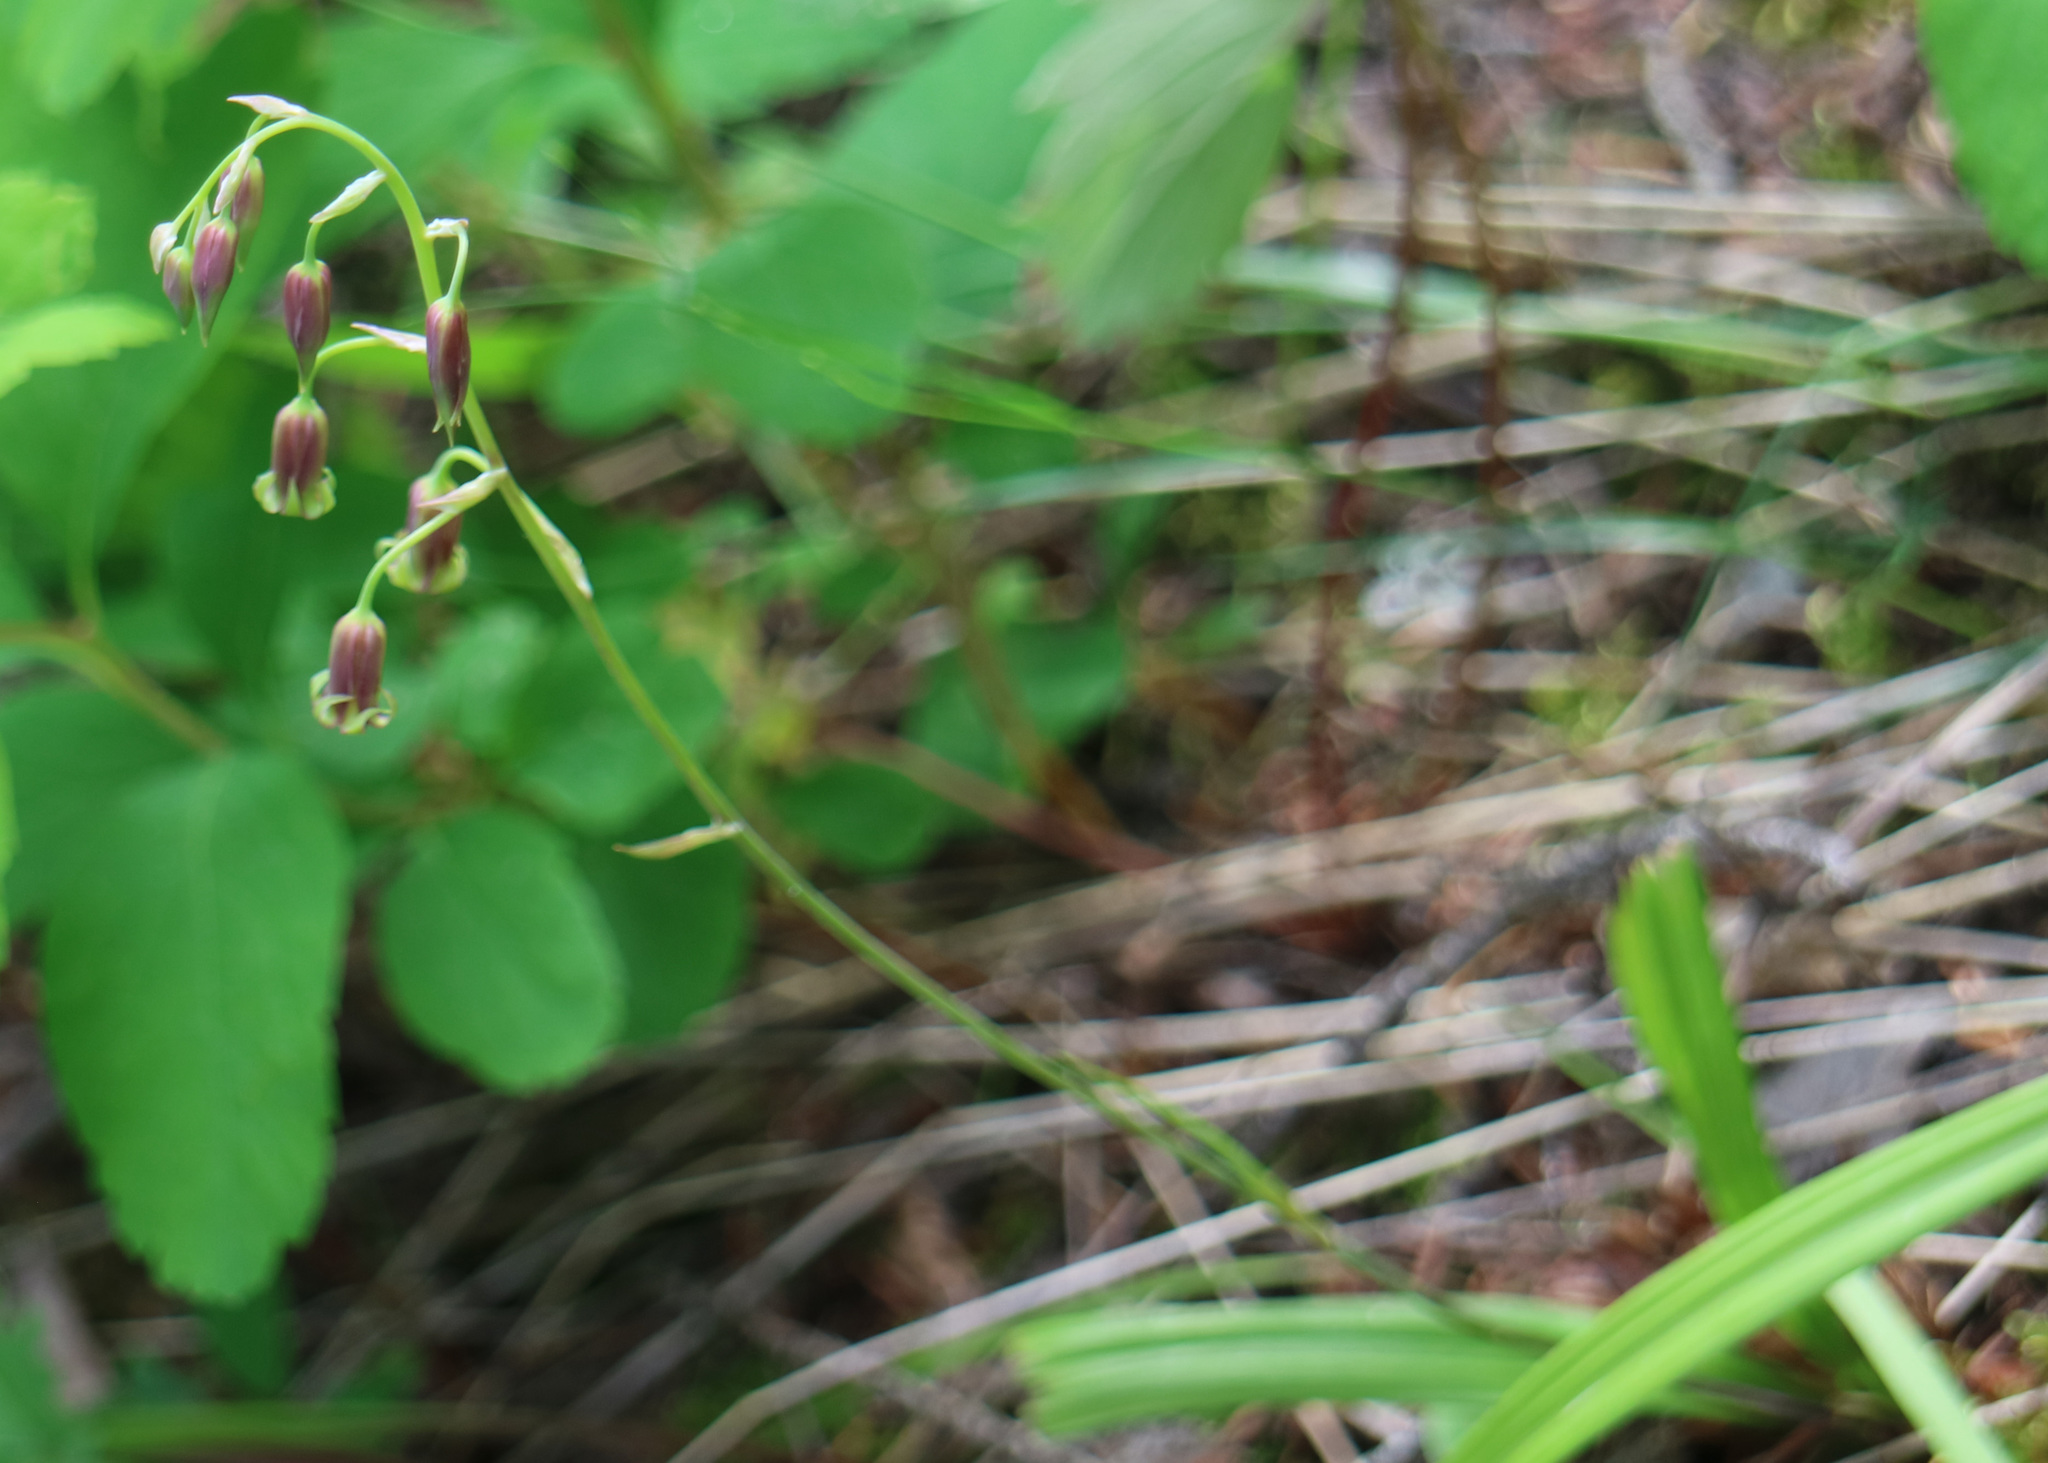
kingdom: Plantae
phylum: Tracheophyta
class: Liliopsida
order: Liliales
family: Melanthiaceae
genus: Anticlea
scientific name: Anticlea occidentalis
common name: Bronze-bells
